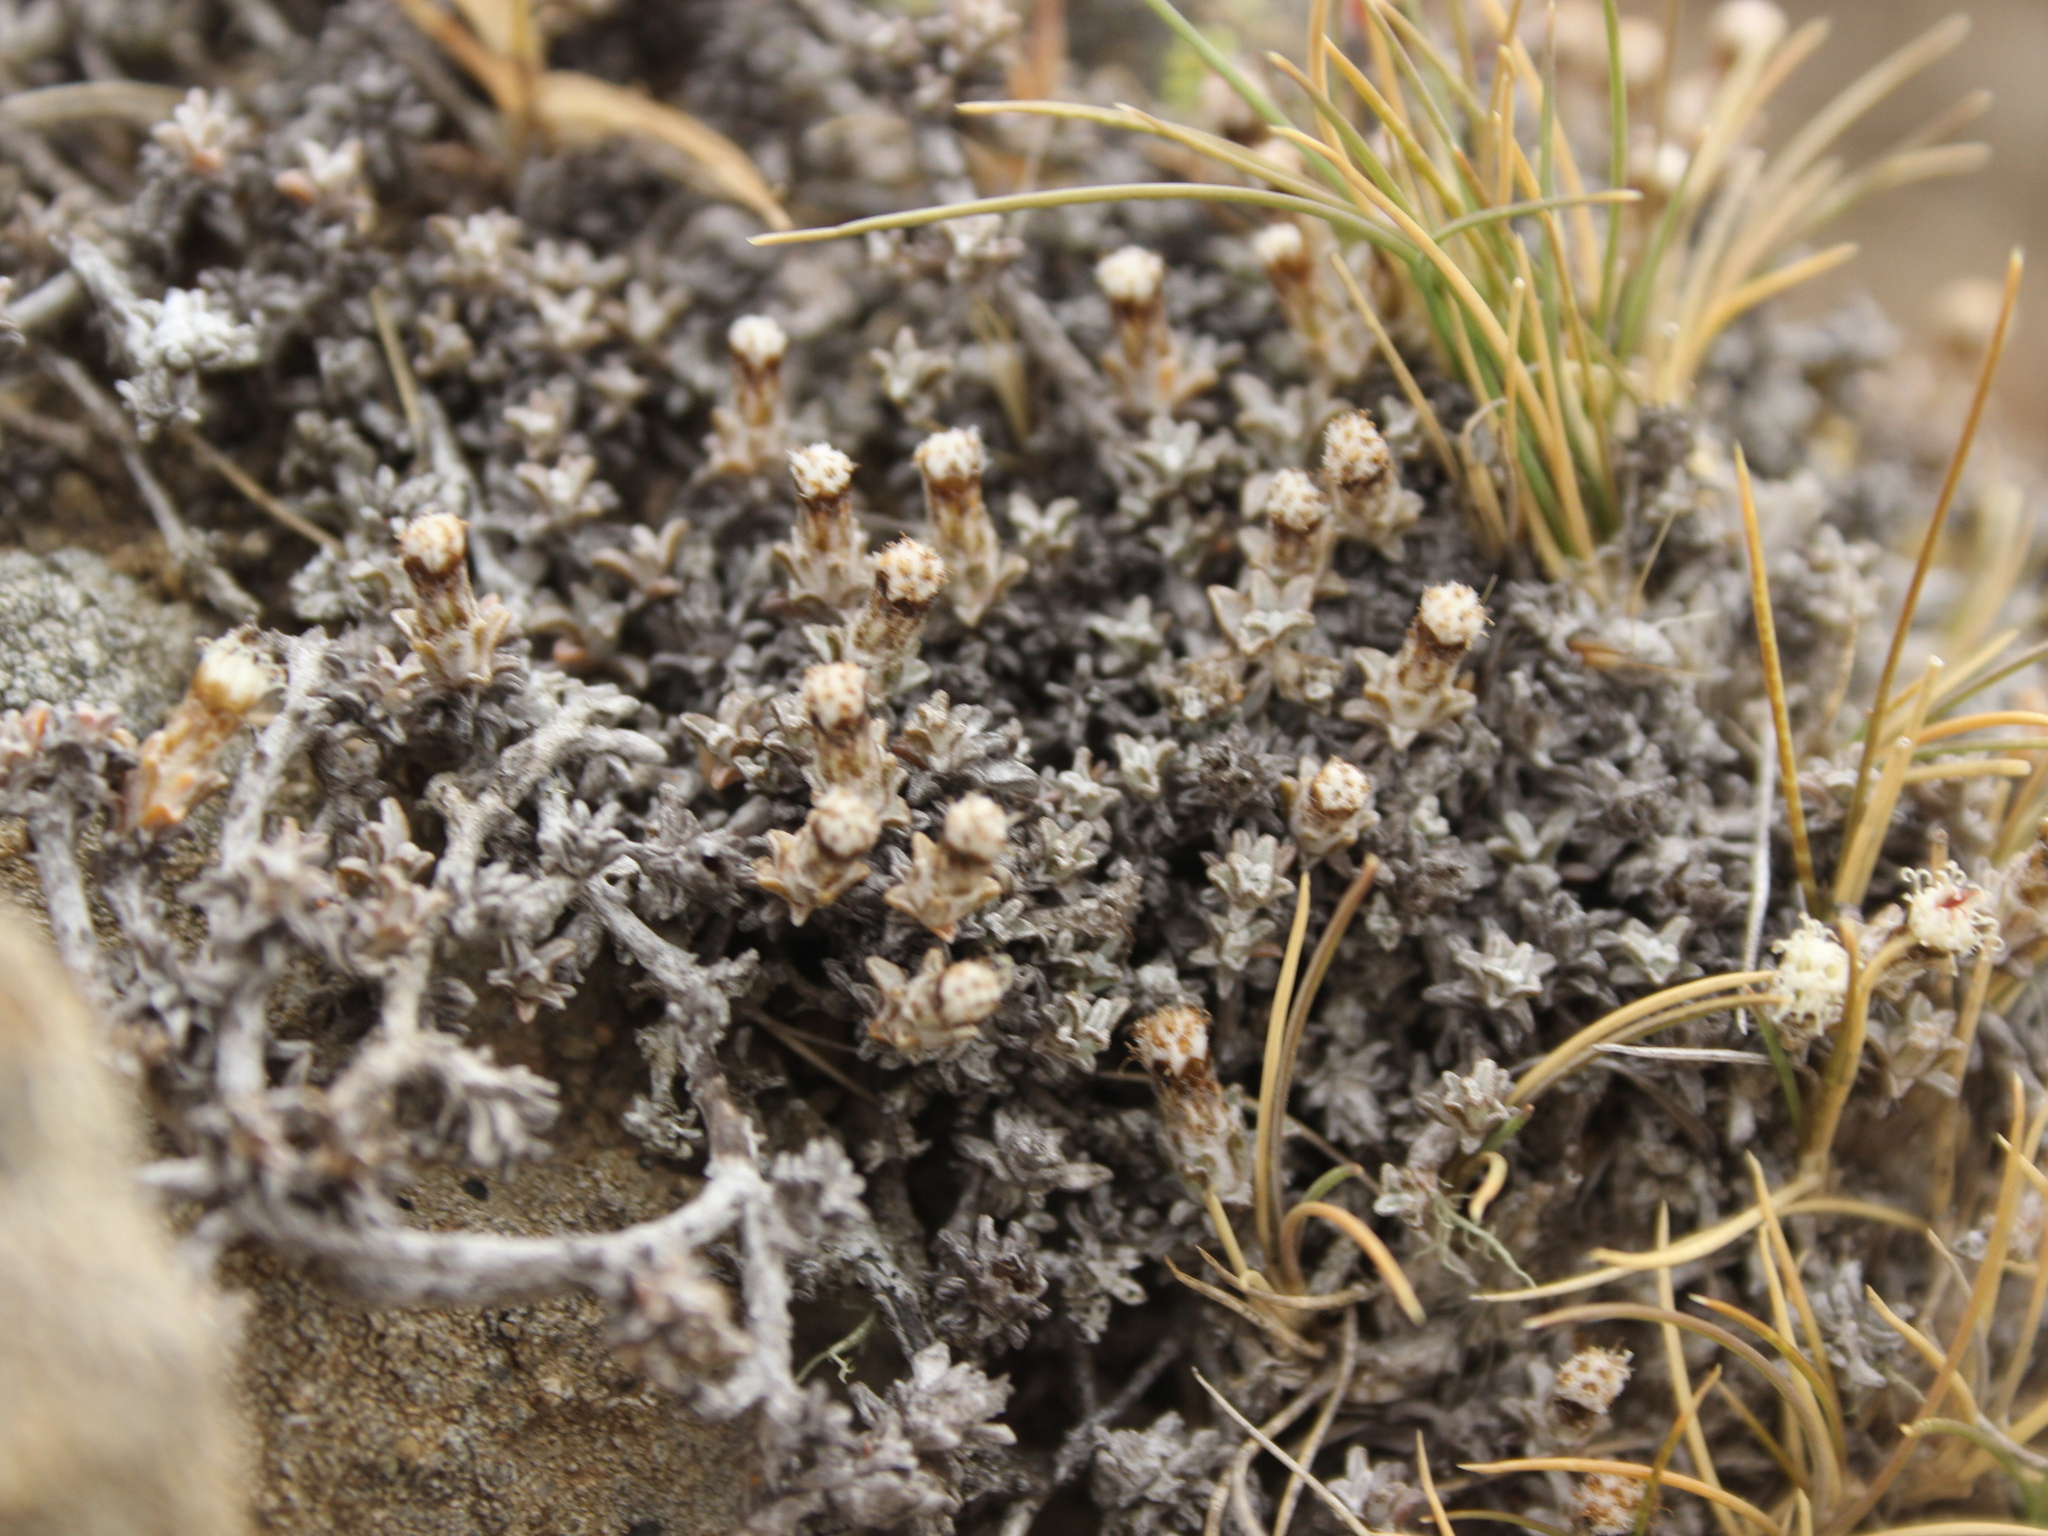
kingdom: Plantae
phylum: Tracheophyta
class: Magnoliopsida
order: Asterales
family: Asteraceae
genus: Raoulia
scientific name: Raoulia beauverdii
